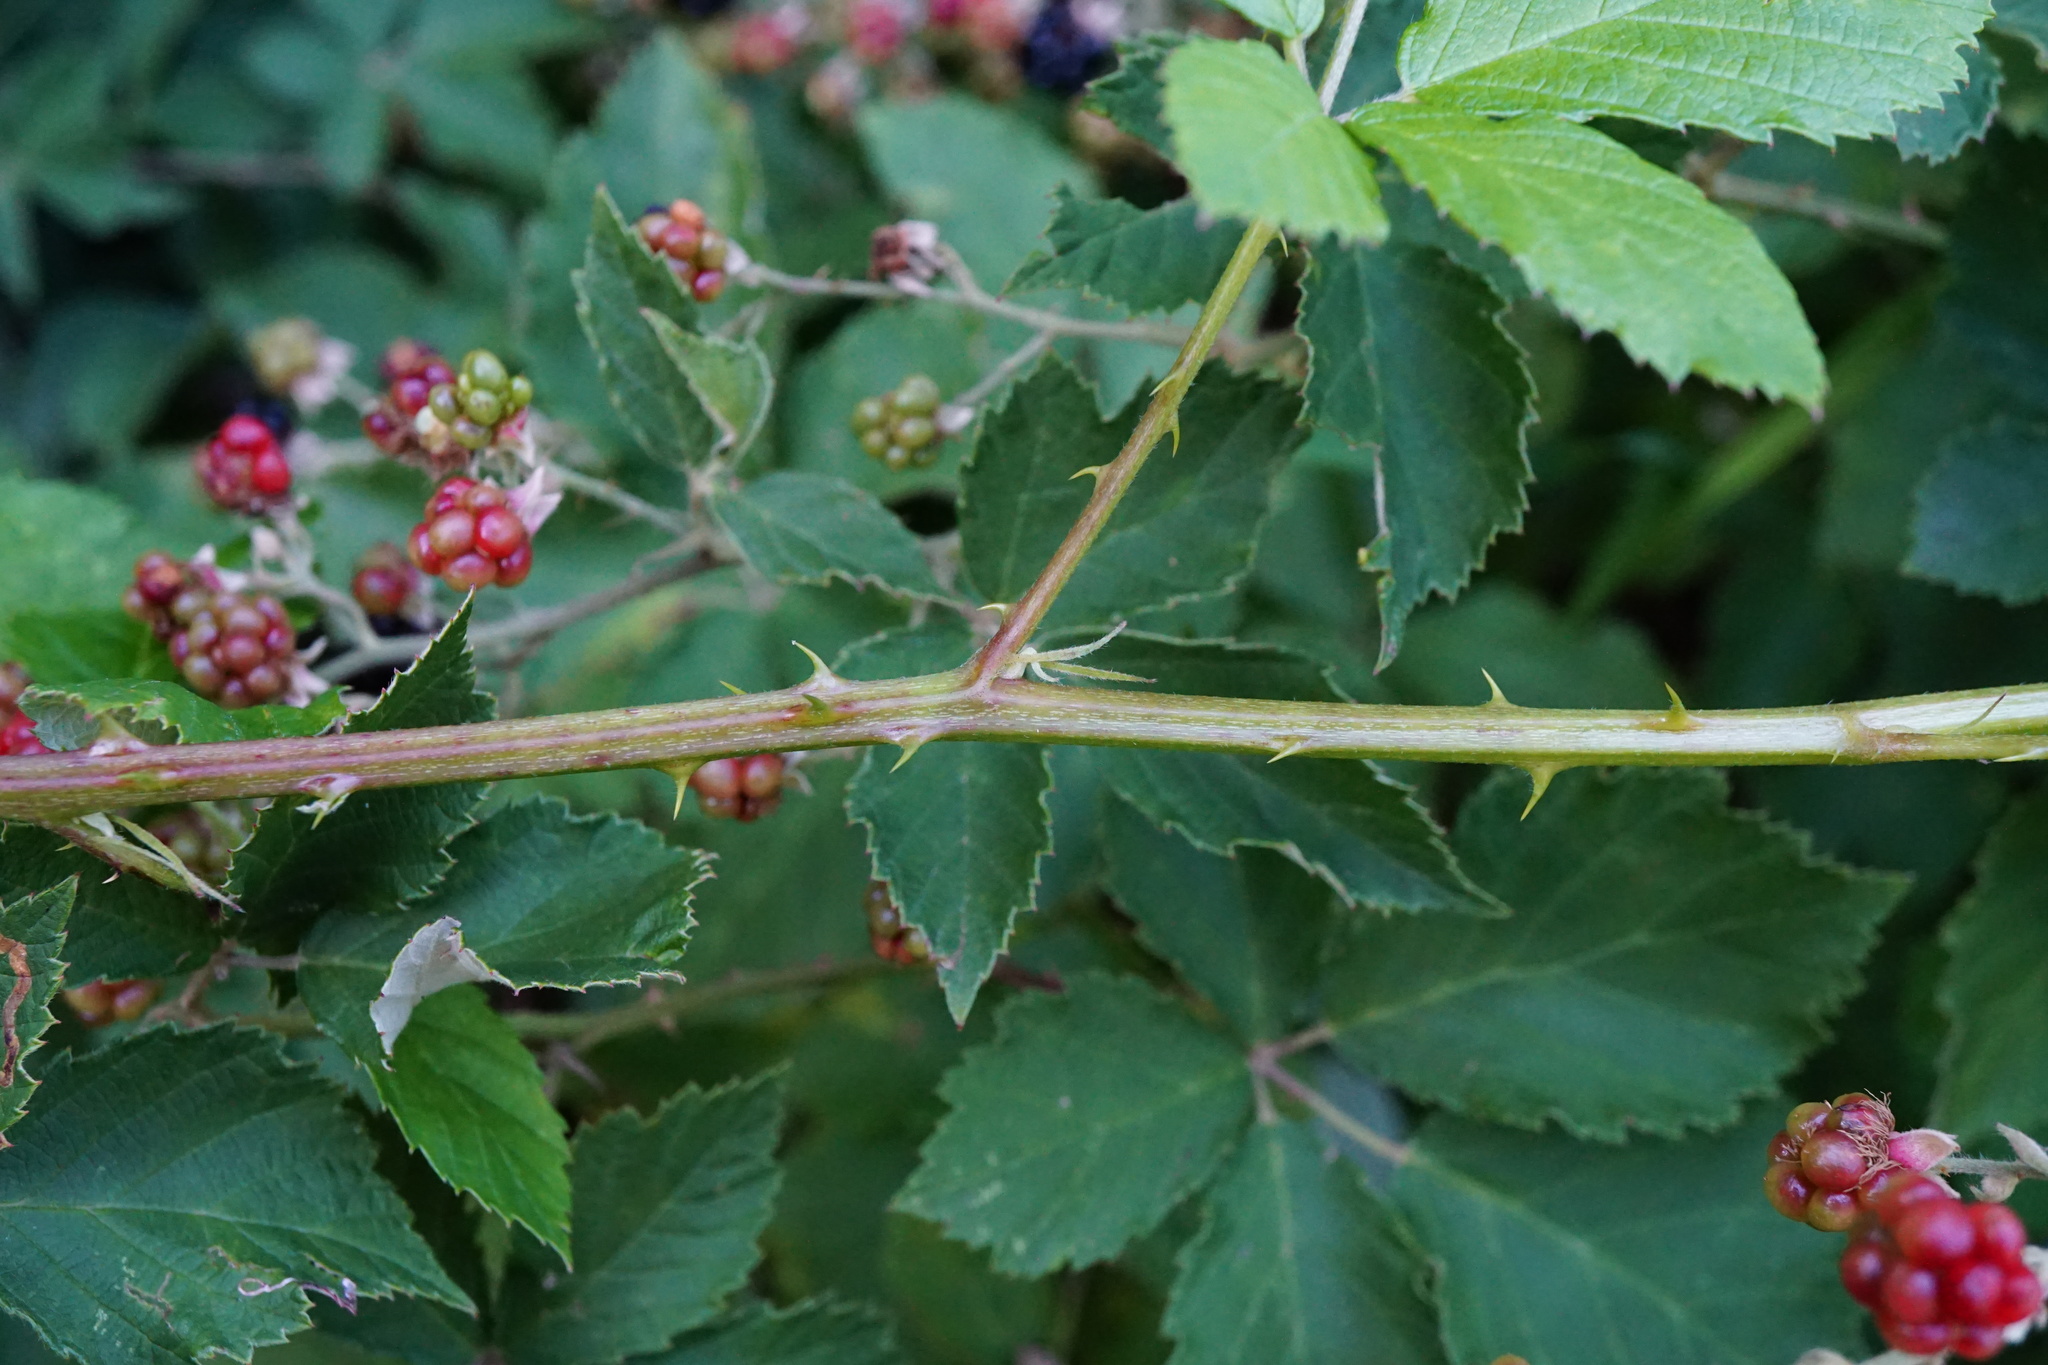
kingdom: Plantae
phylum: Tracheophyta
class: Magnoliopsida
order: Rosales
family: Rosaceae
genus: Rubus
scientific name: Rubus
